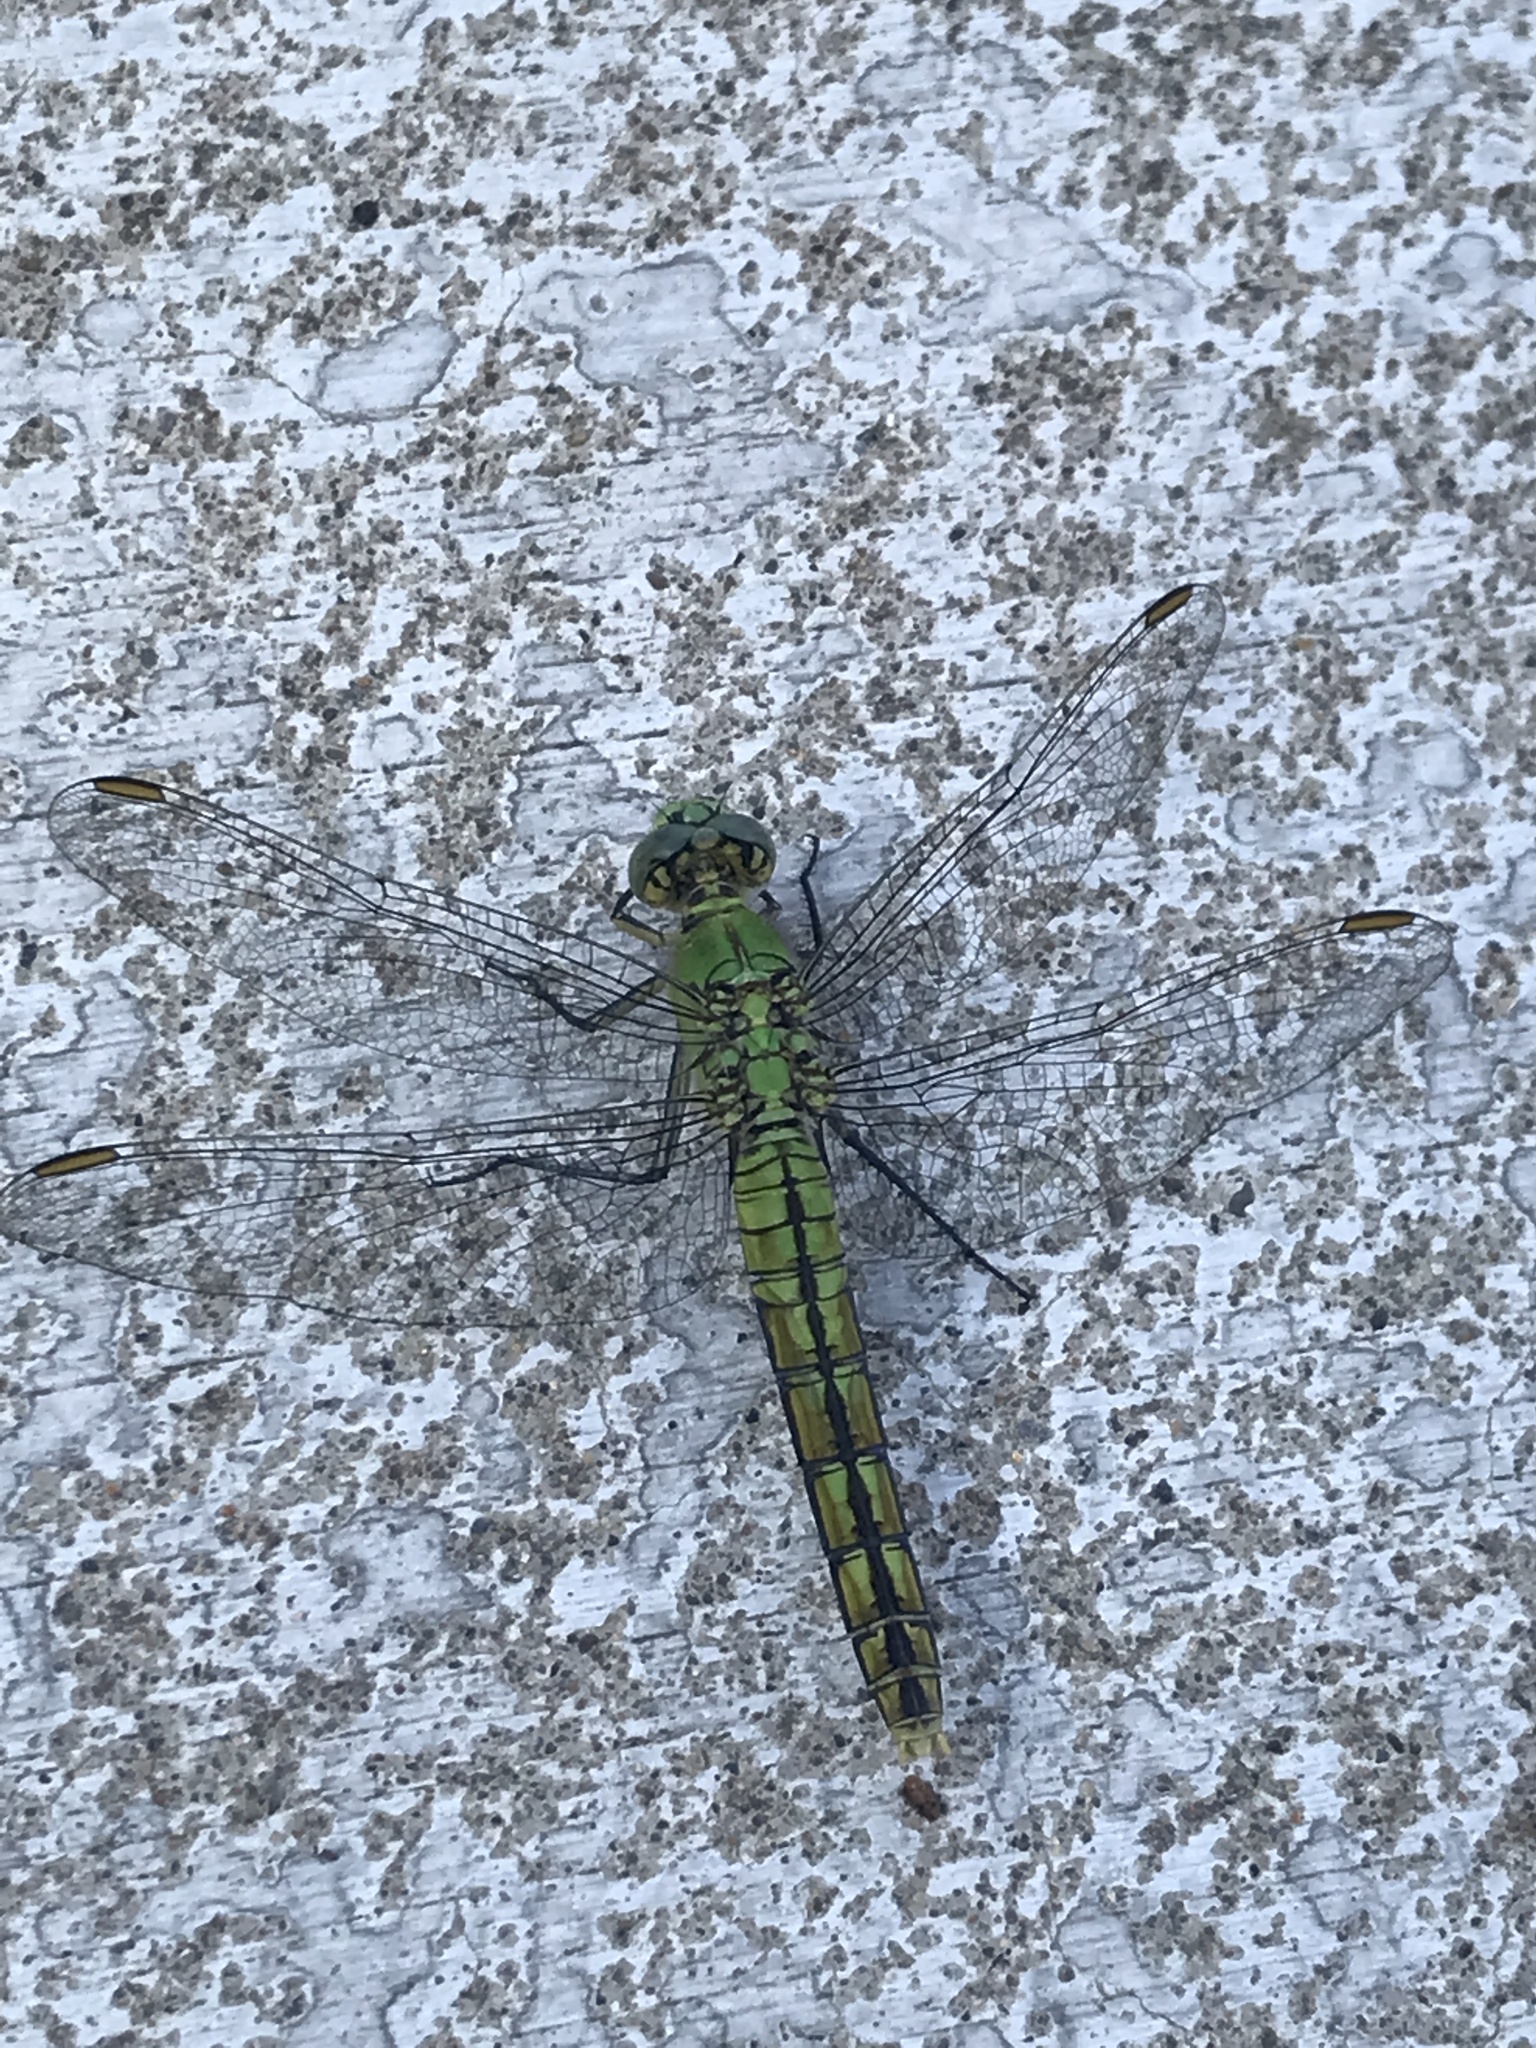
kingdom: Animalia
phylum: Arthropoda
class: Insecta
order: Odonata
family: Libellulidae
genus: Erythemis
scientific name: Erythemis collocata
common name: Western pondhawk
